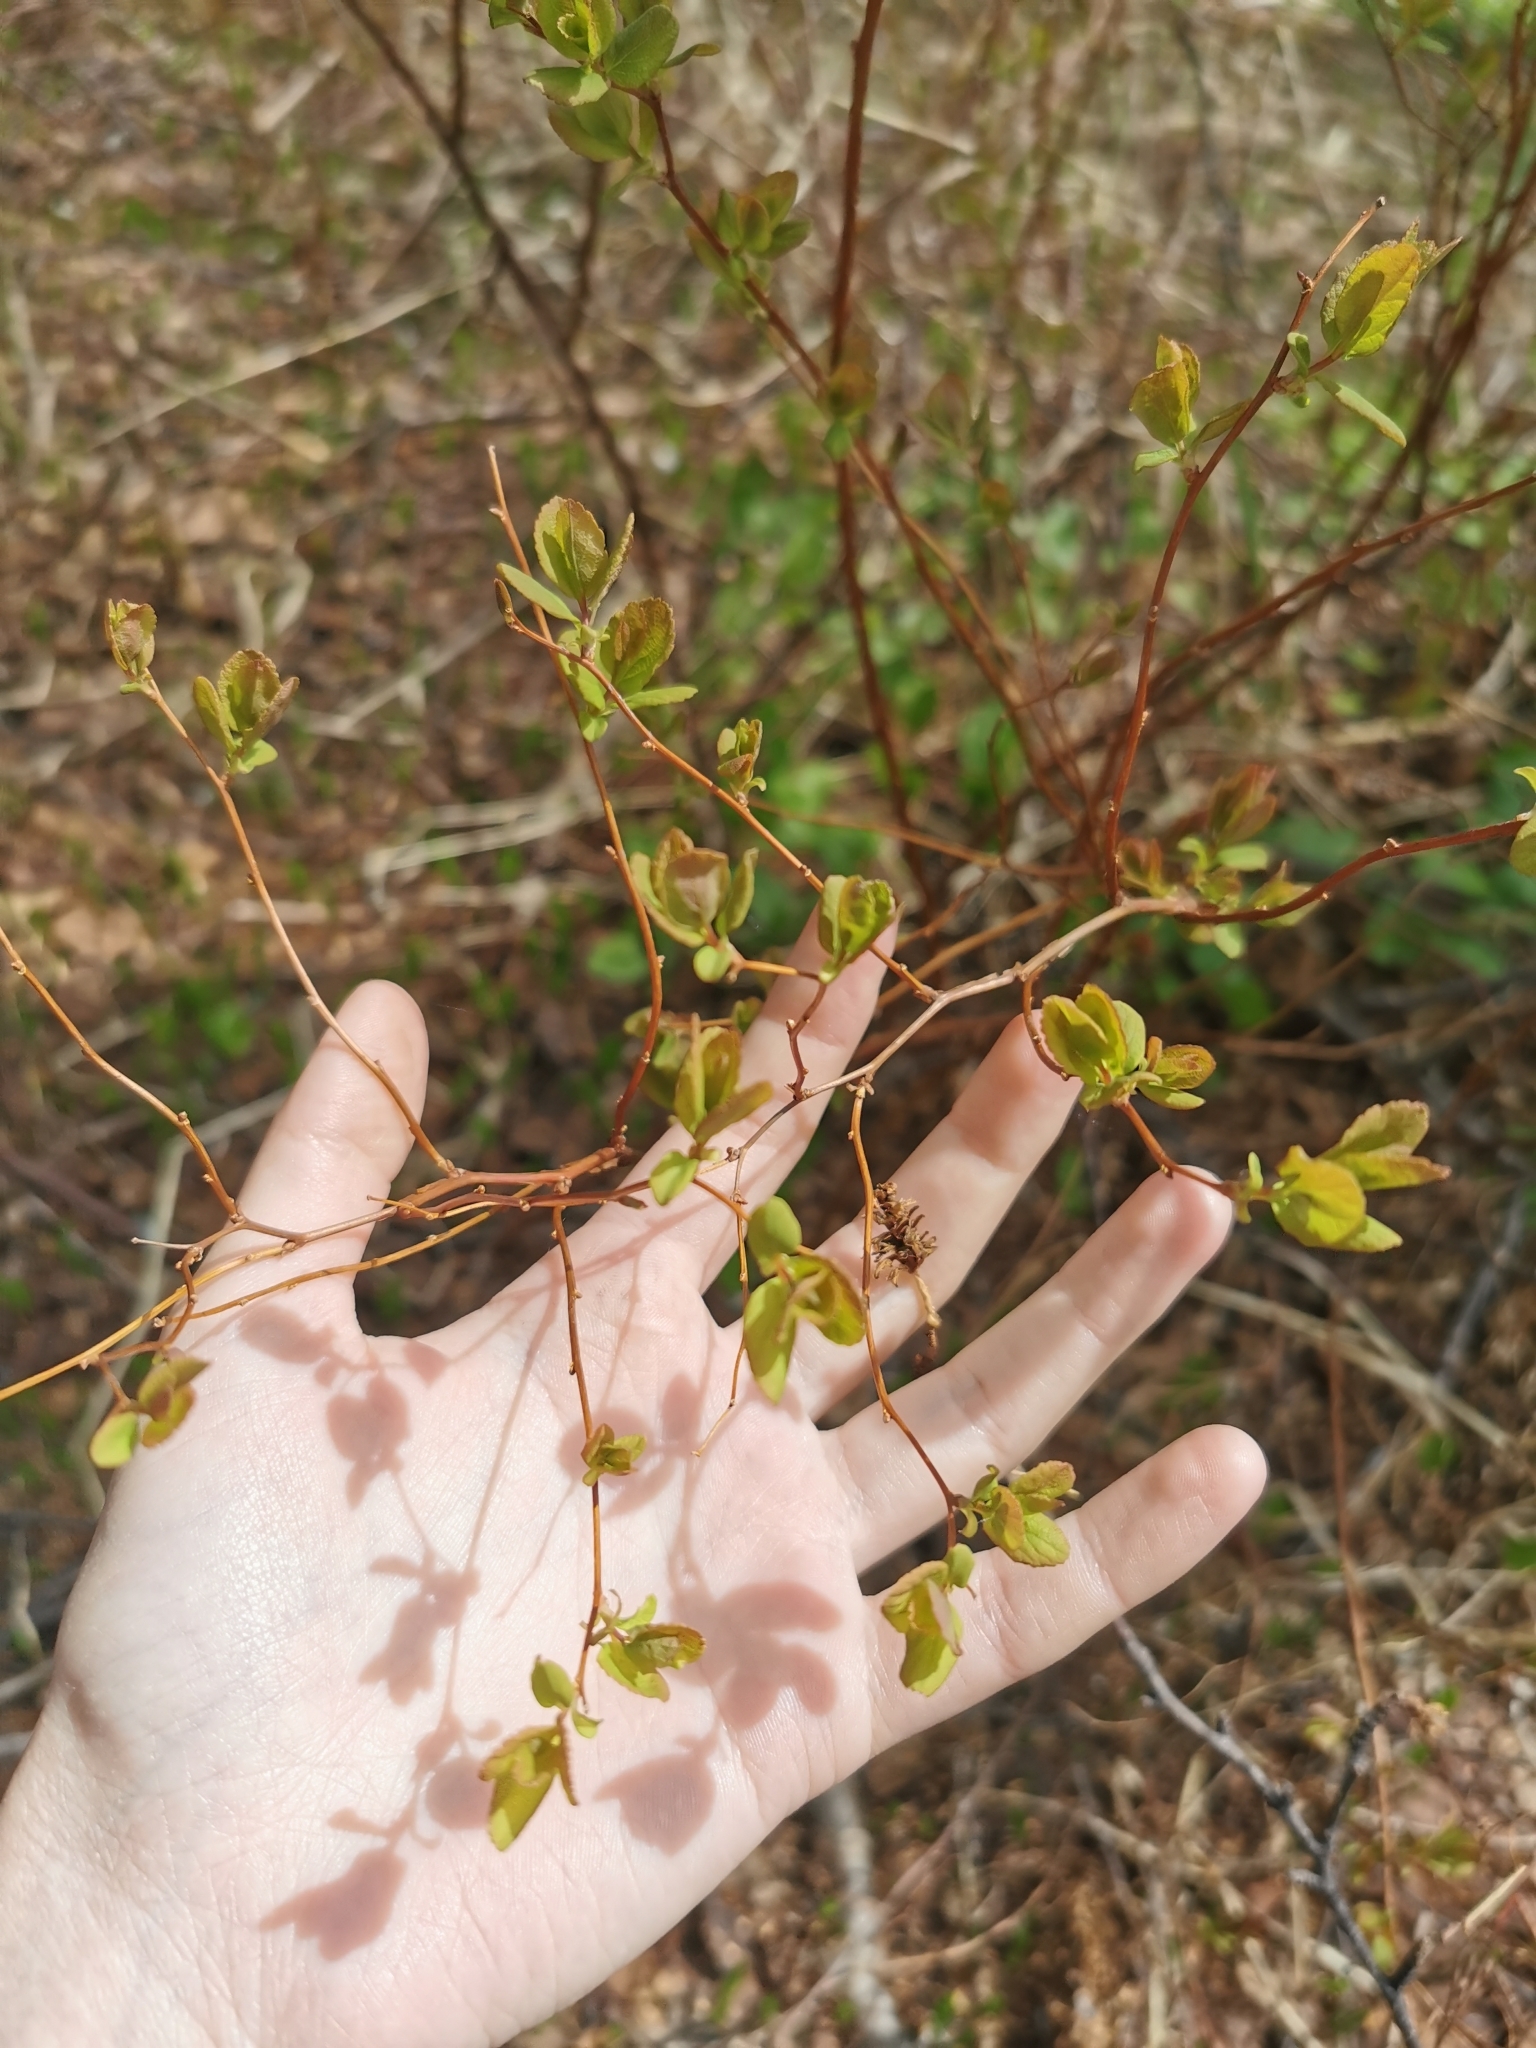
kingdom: Plantae
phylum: Tracheophyta
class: Magnoliopsida
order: Rosales
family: Rosaceae
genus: Spiraea
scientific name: Spiraea betulifolia
